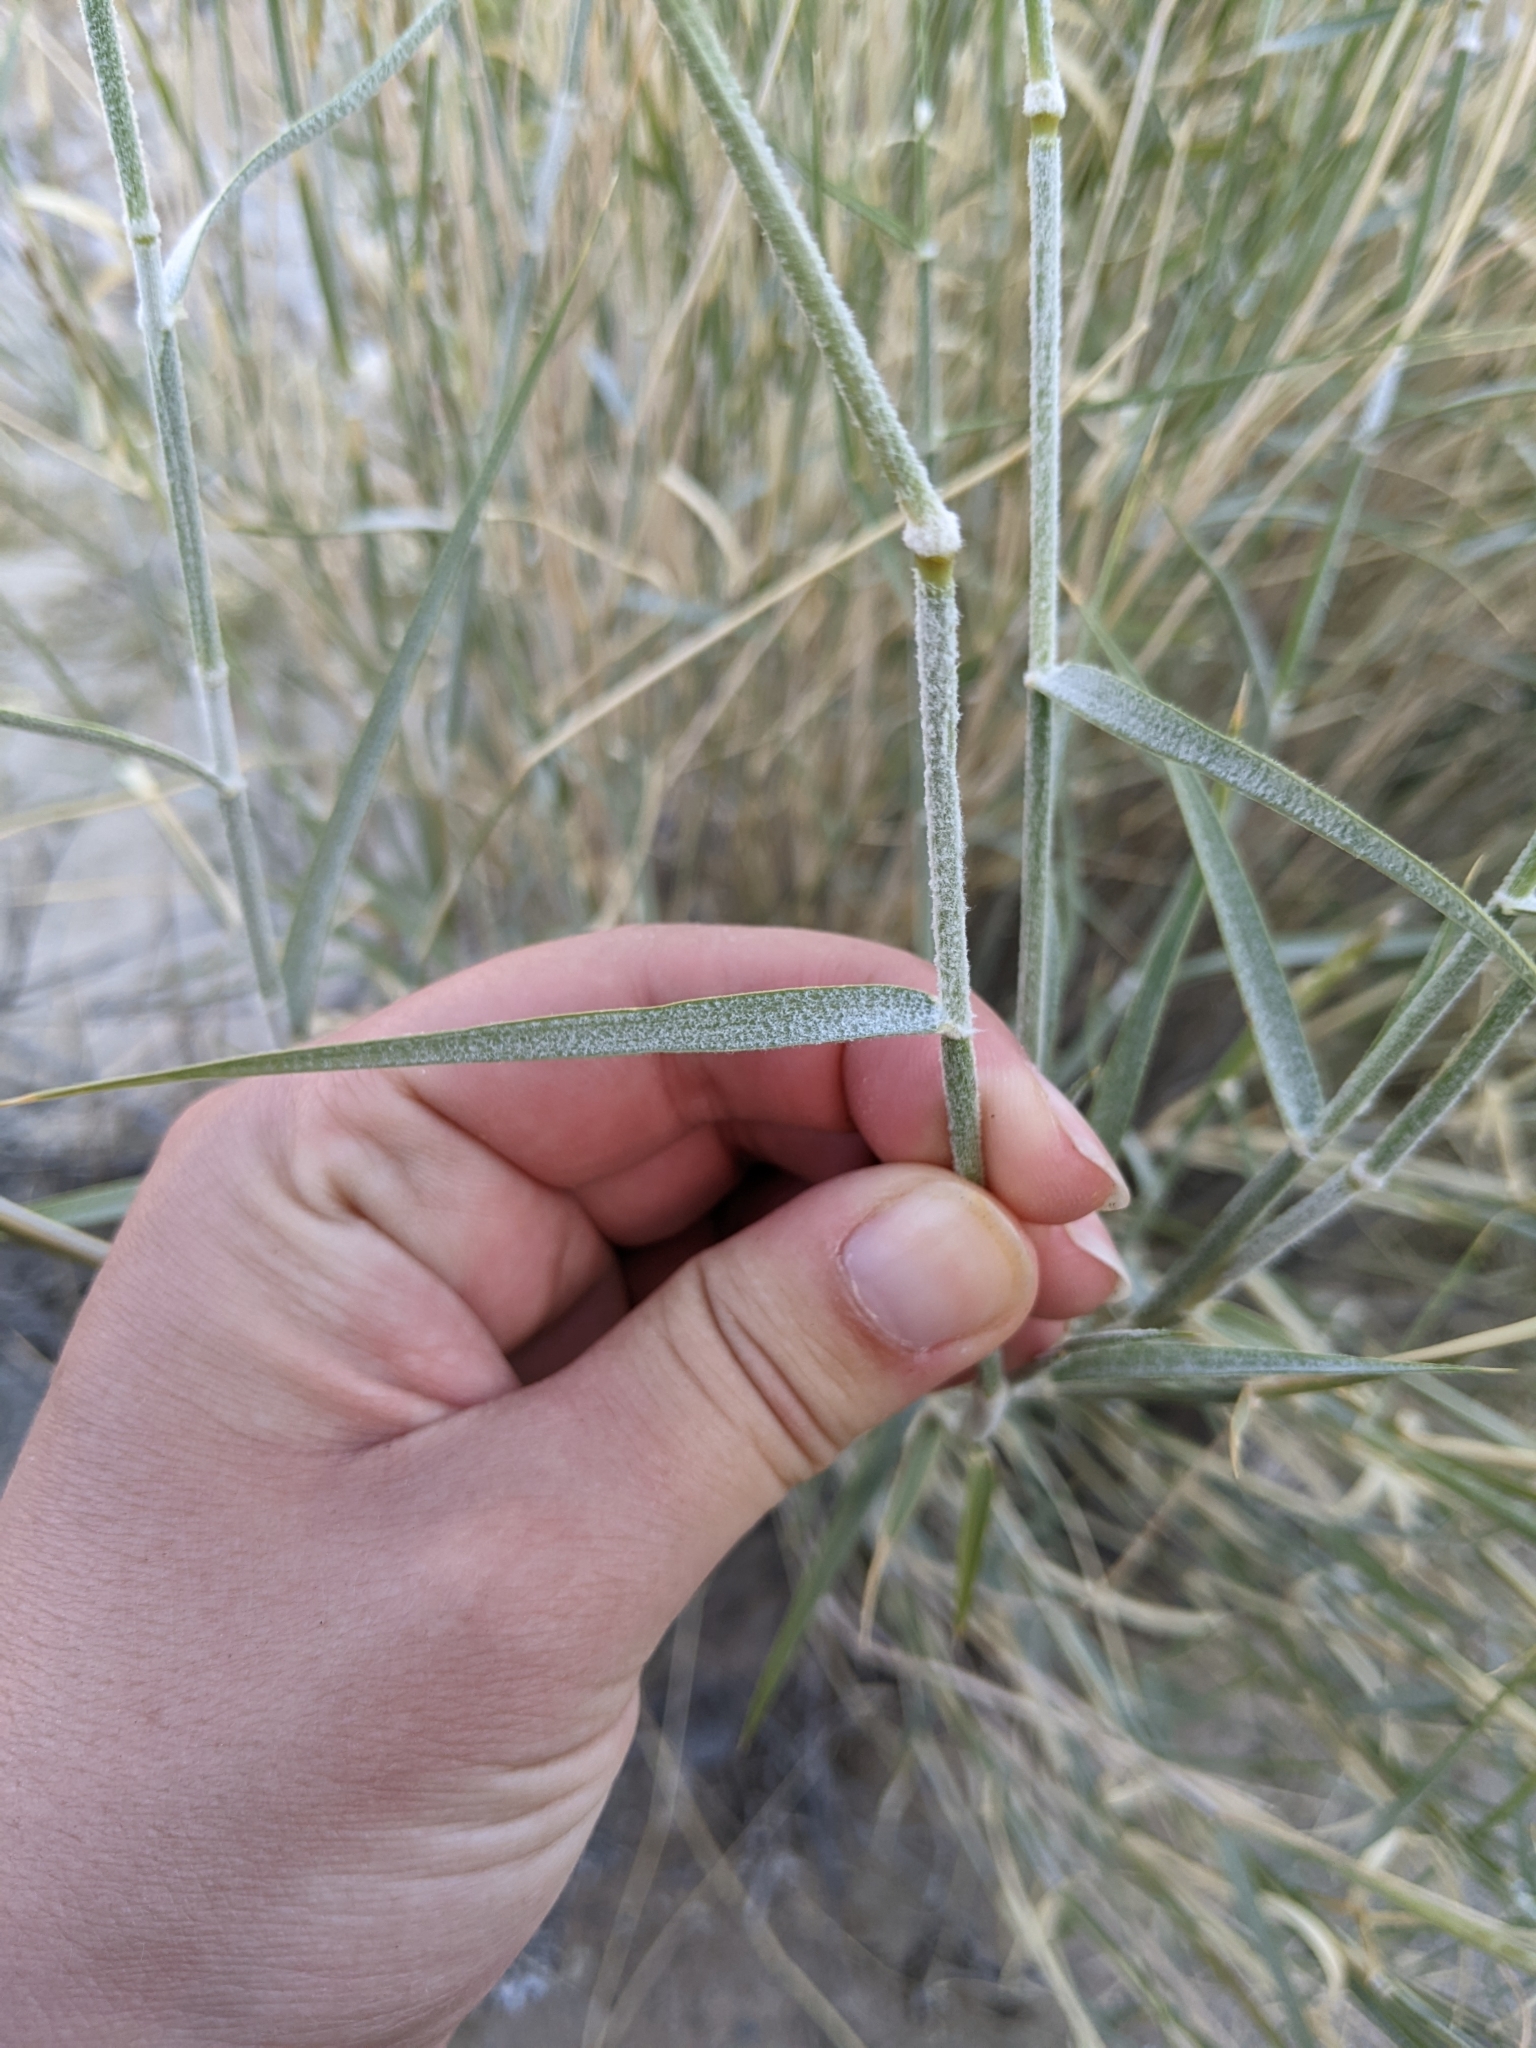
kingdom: Plantae
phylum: Tracheophyta
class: Liliopsida
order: Poales
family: Poaceae
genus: Hilaria
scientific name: Hilaria rigida
